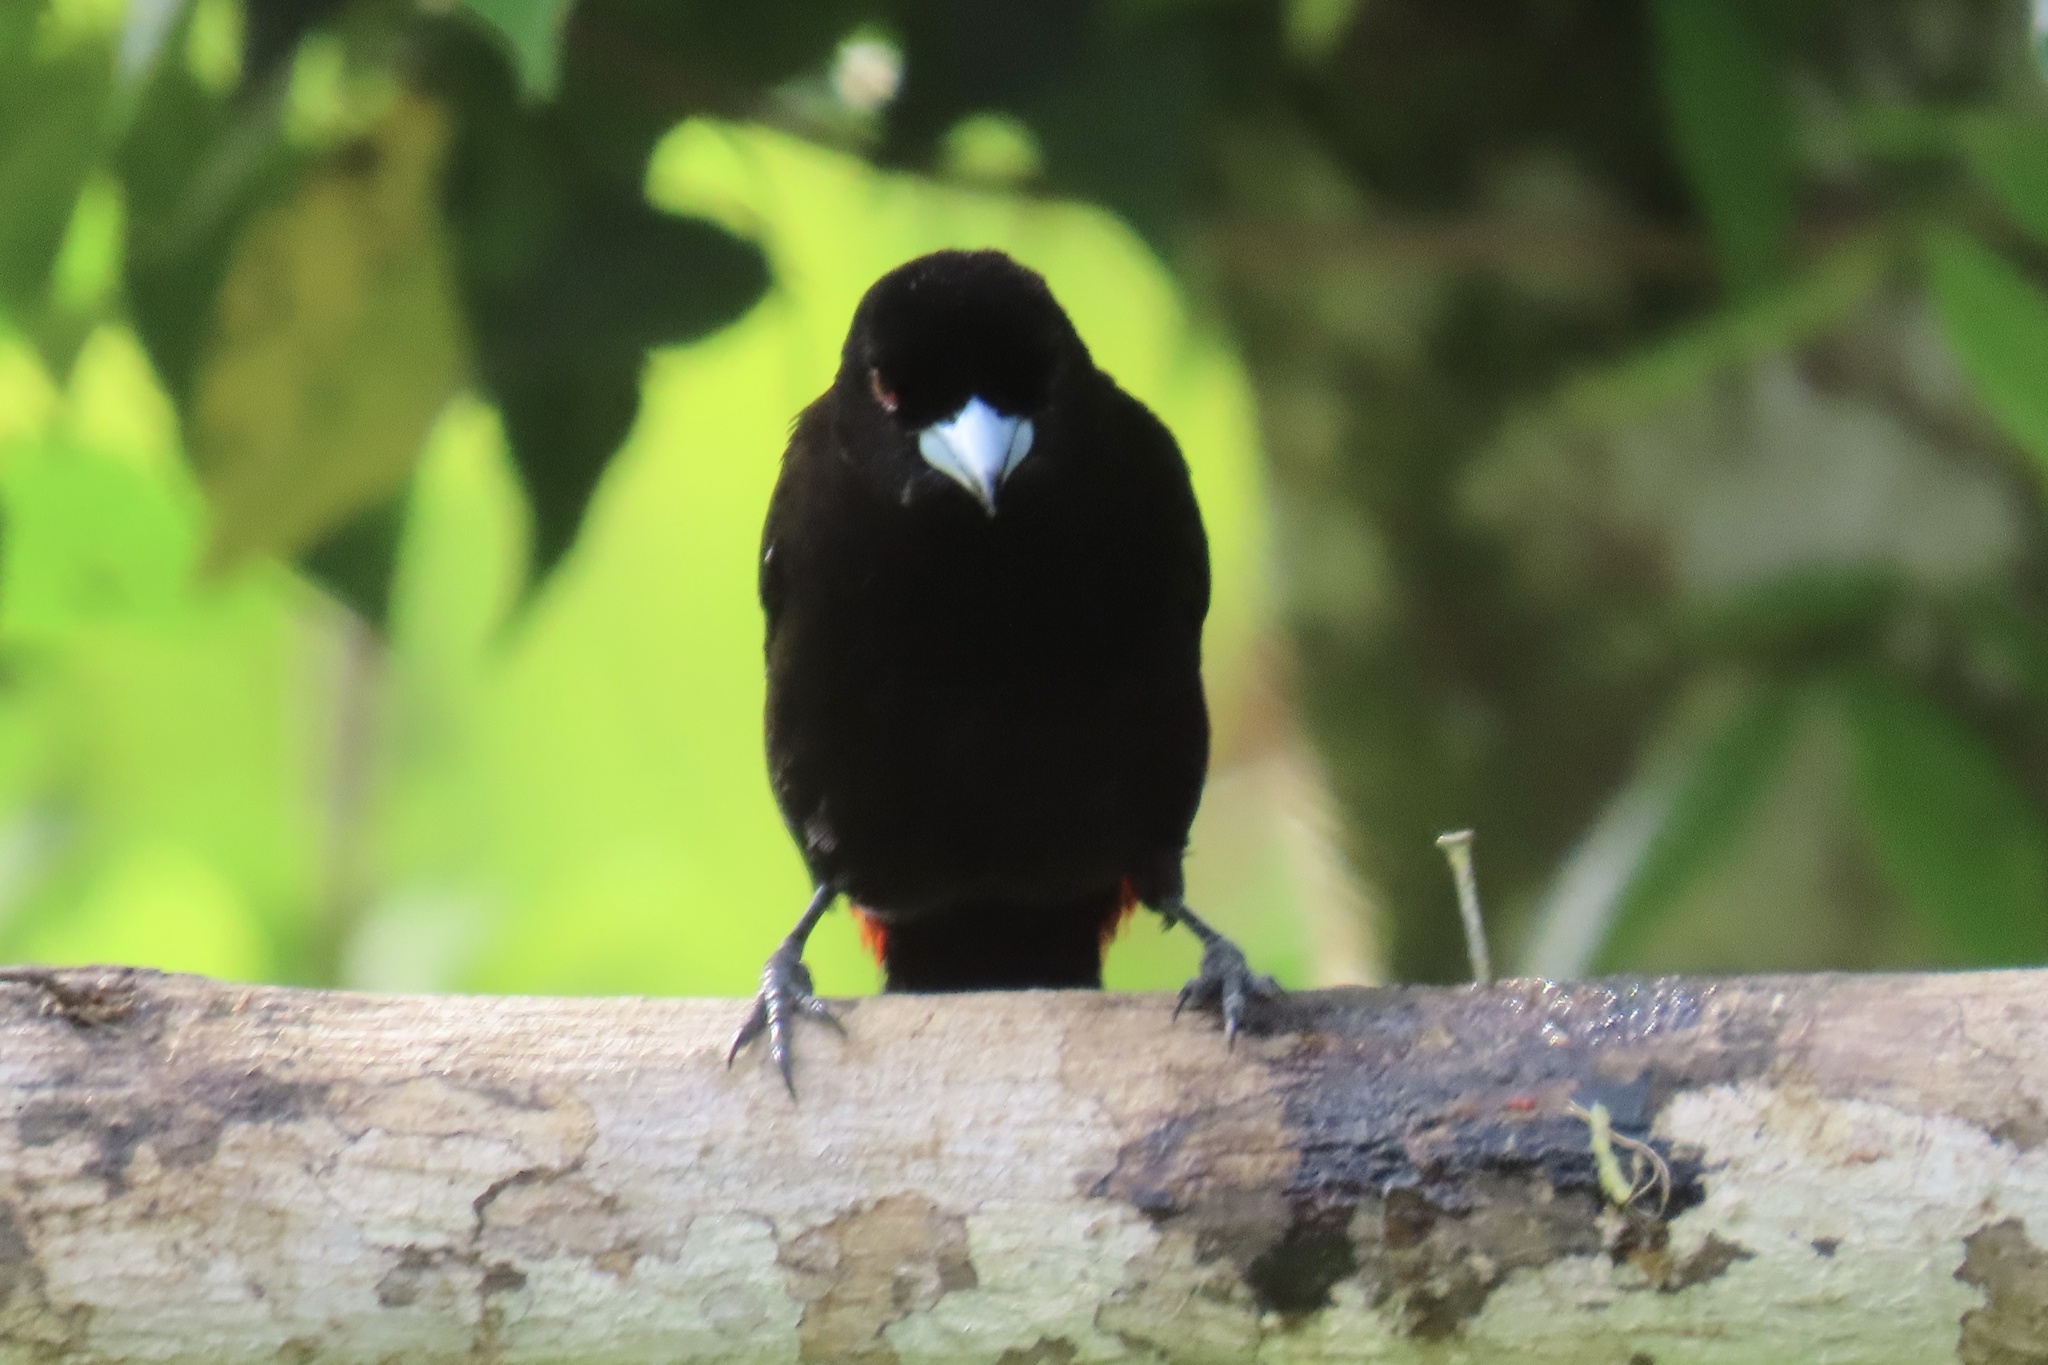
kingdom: Animalia
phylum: Chordata
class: Aves
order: Passeriformes
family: Thraupidae
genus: Ramphocelus
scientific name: Ramphocelus passerinii
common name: Passerini's tanager
